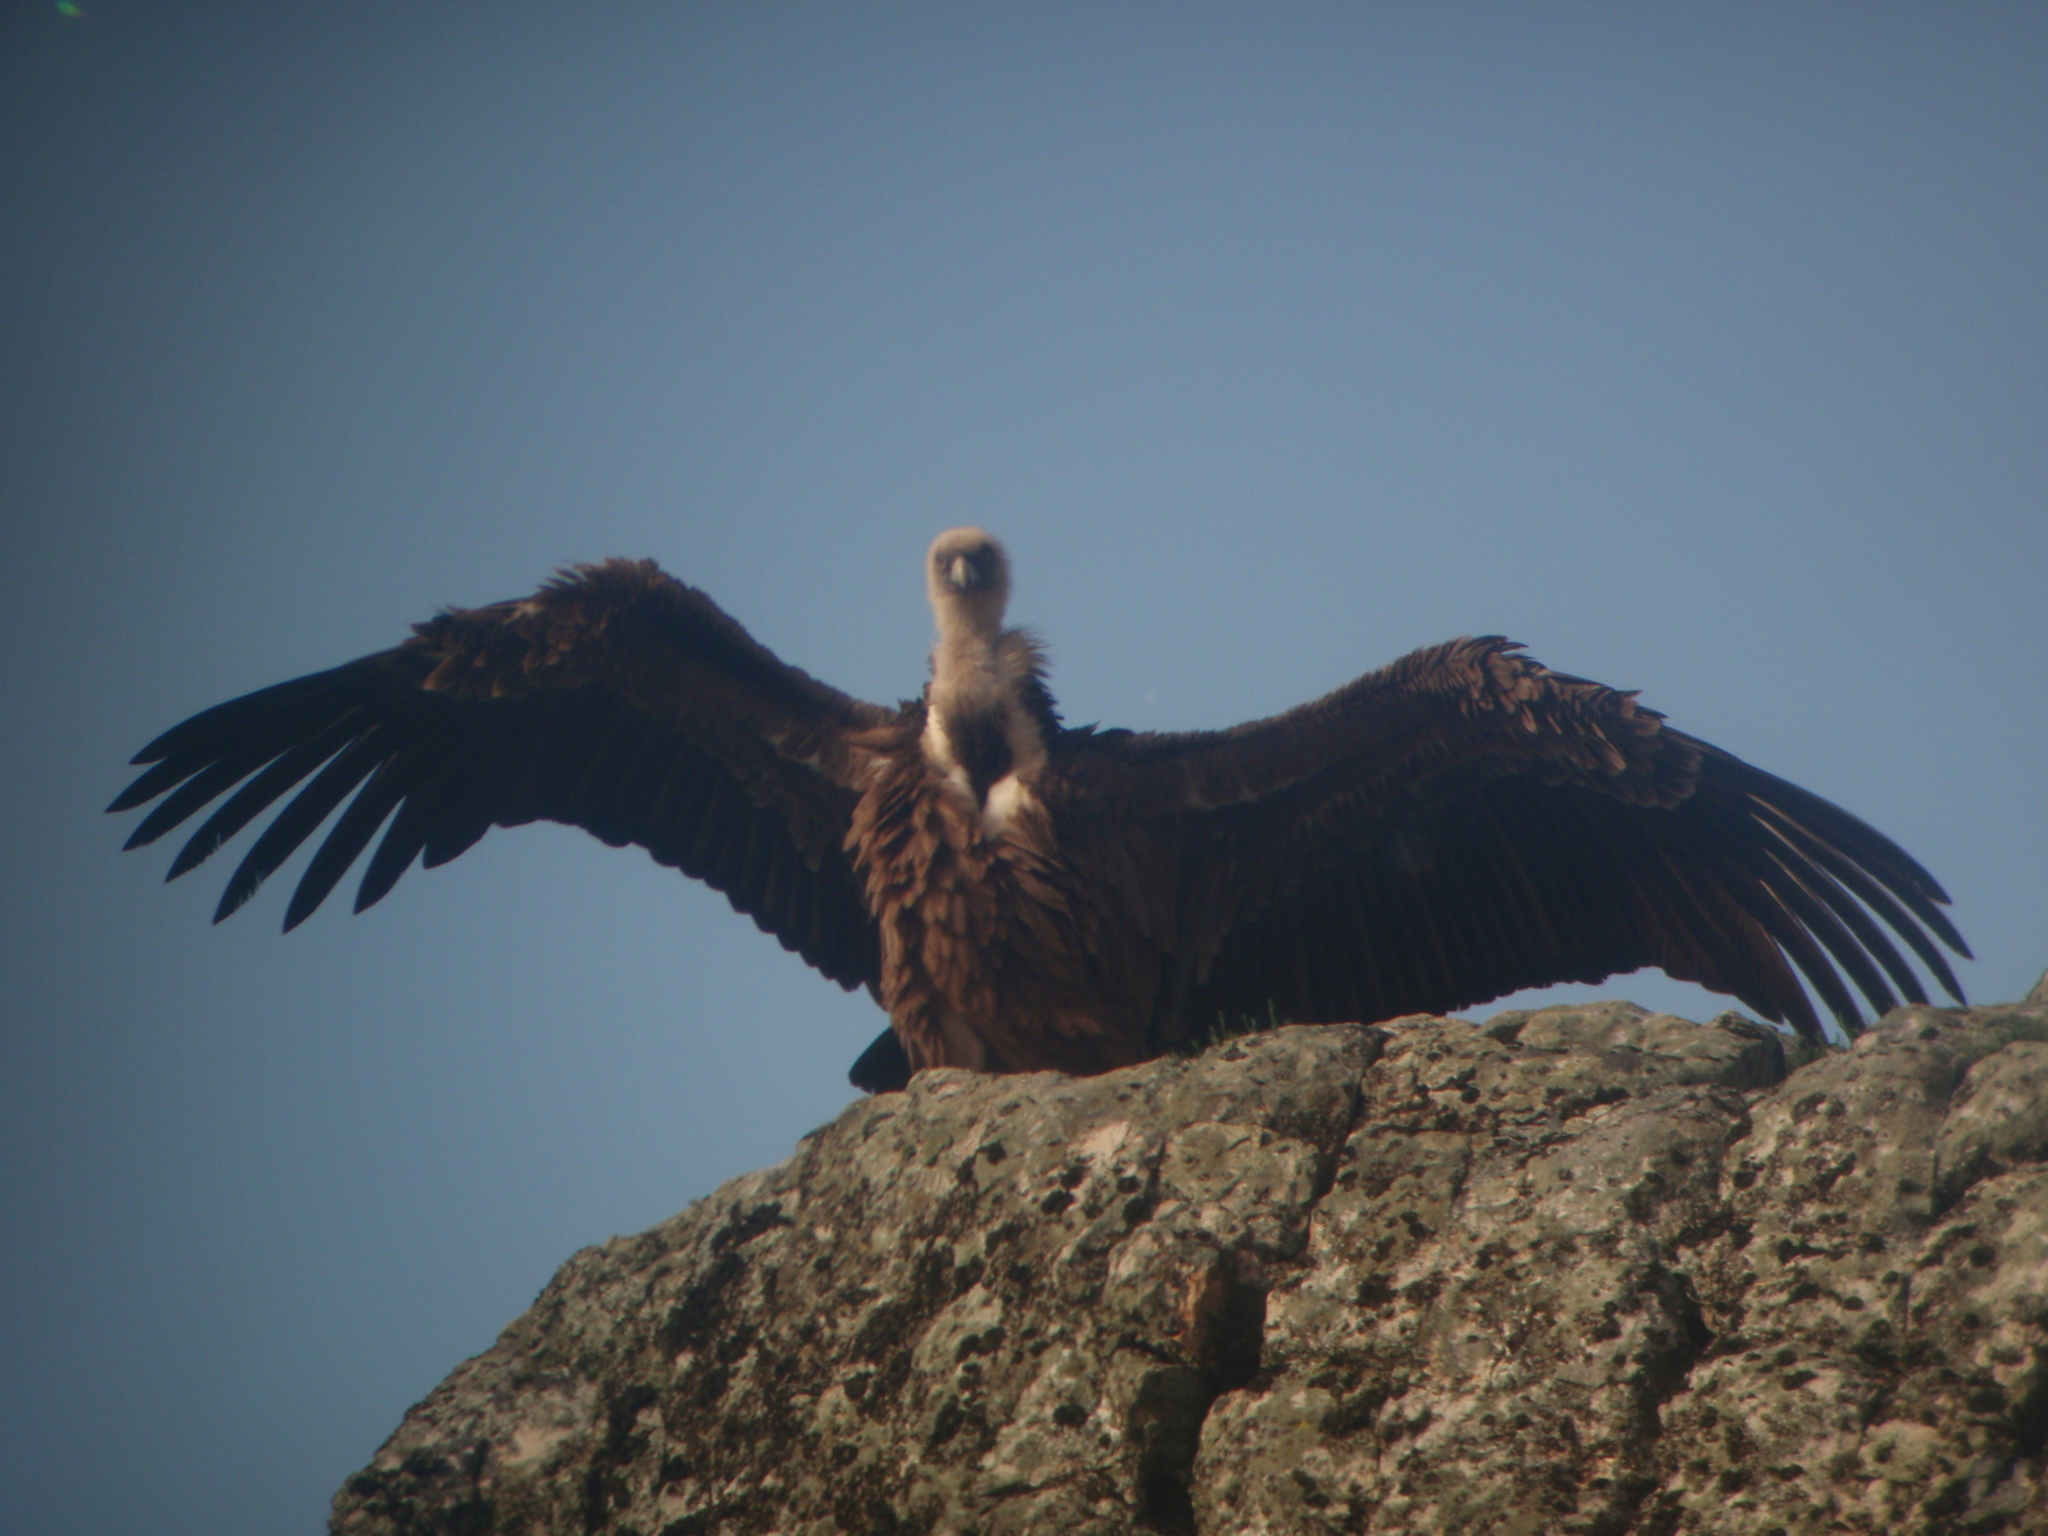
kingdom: Animalia
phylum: Chordata
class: Aves
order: Accipitriformes
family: Accipitridae
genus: Gyps
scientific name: Gyps fulvus
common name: Griffon vulture
